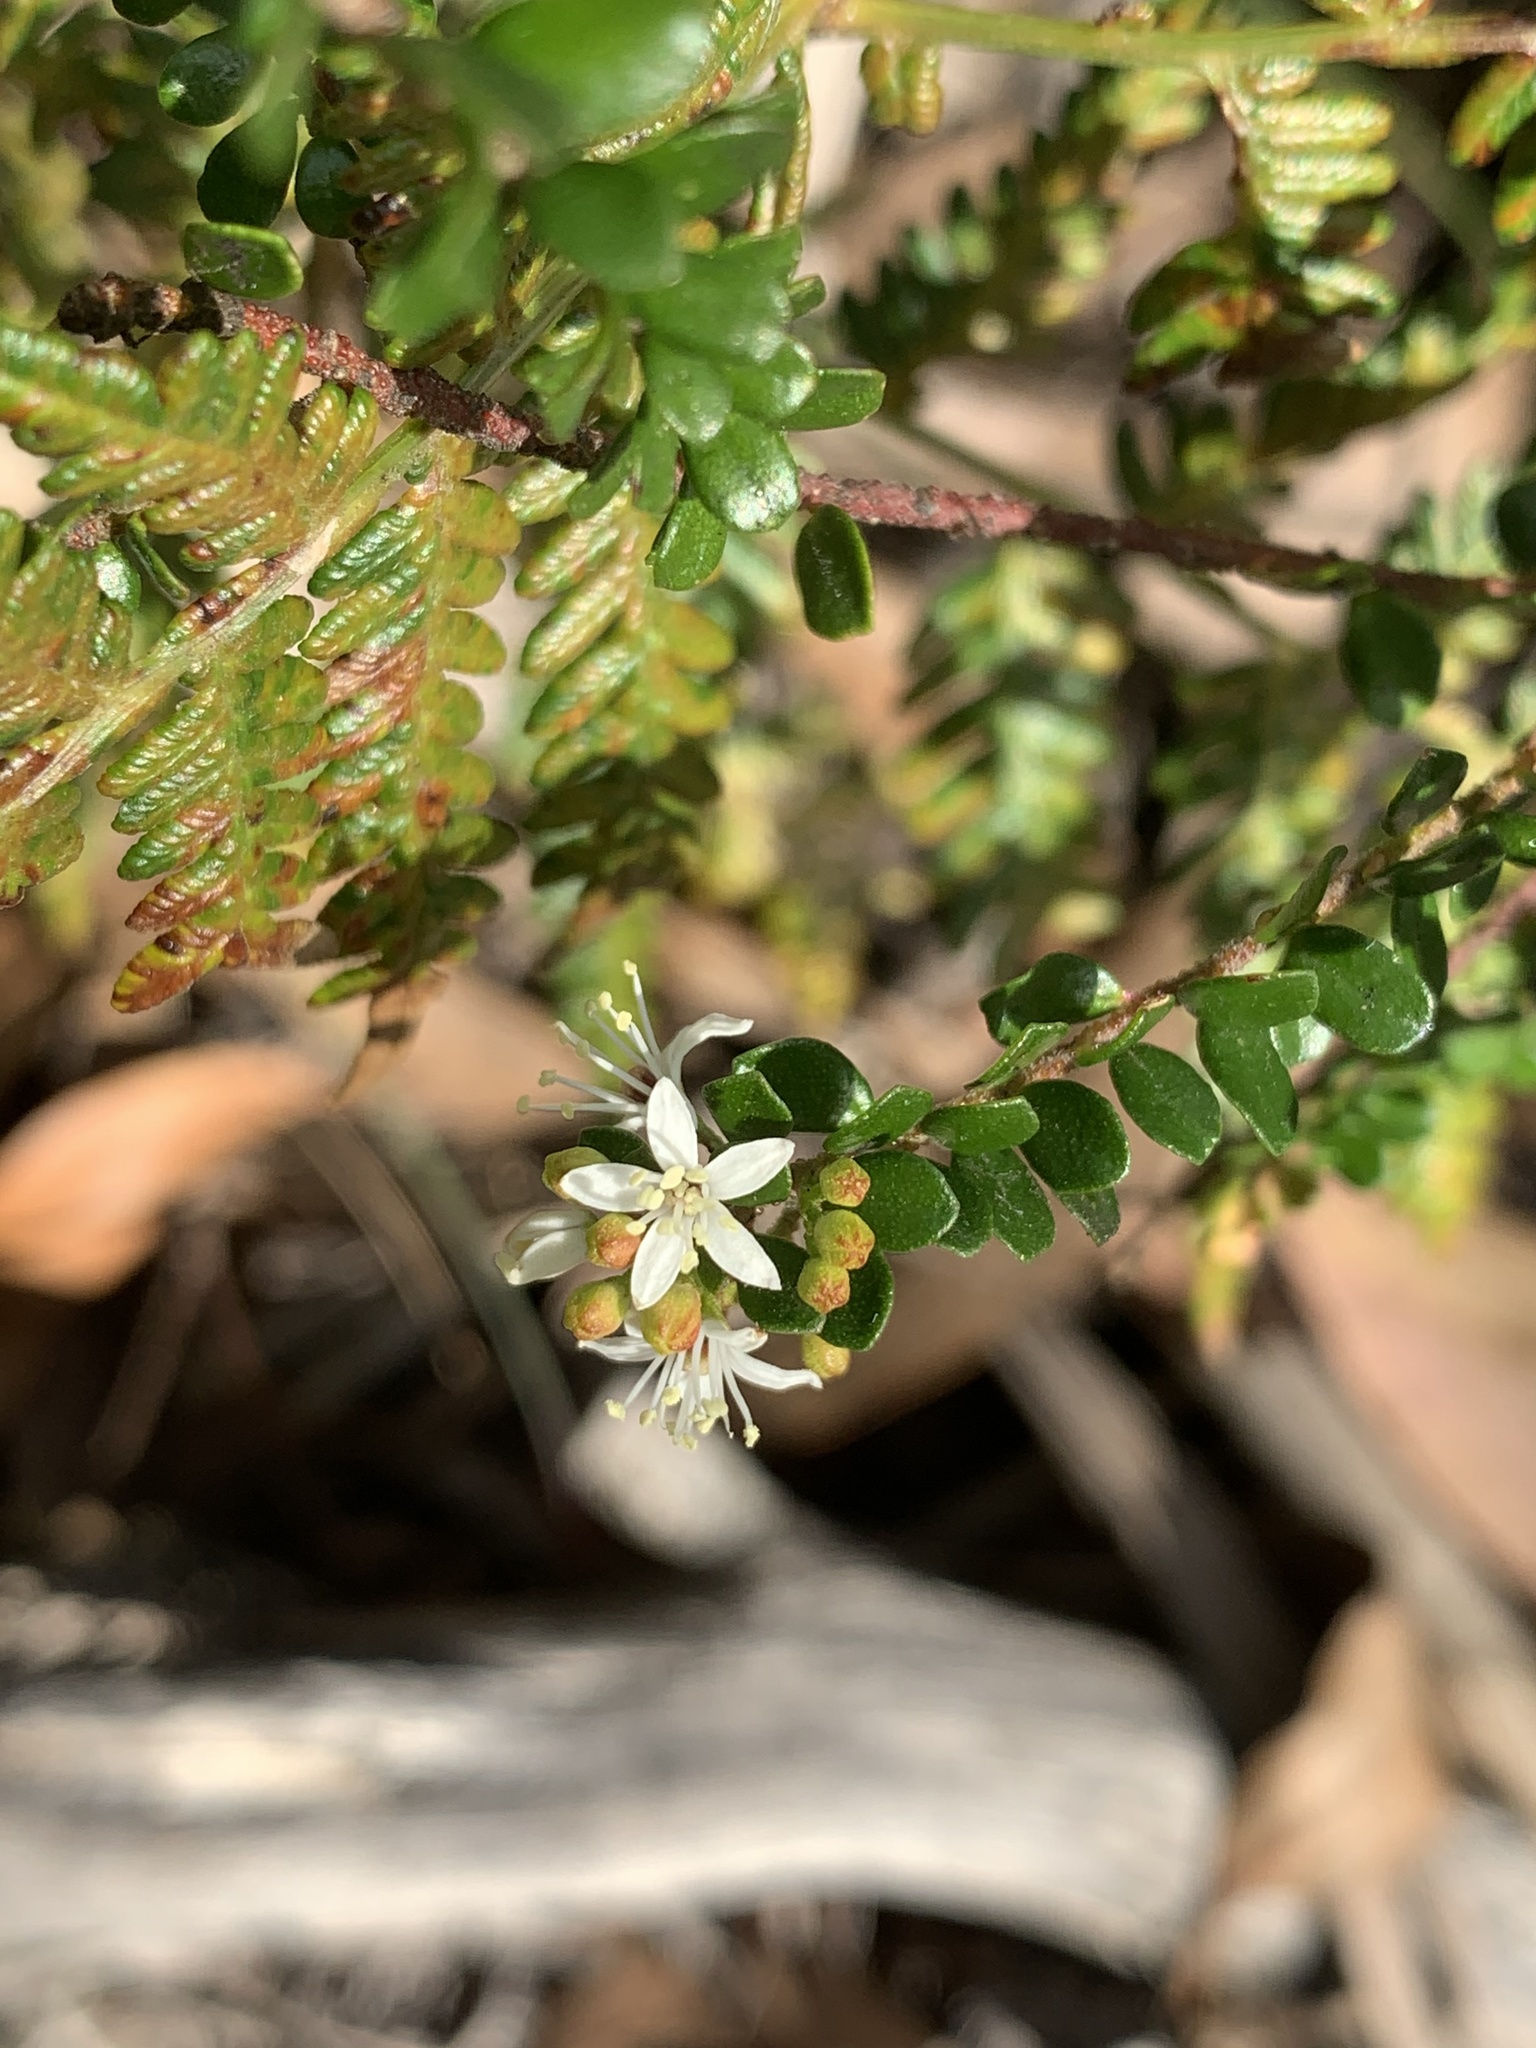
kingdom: Plantae
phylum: Tracheophyta
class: Magnoliopsida
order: Sapindales
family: Rutaceae
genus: Leionema
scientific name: Leionema lamprophyllum
